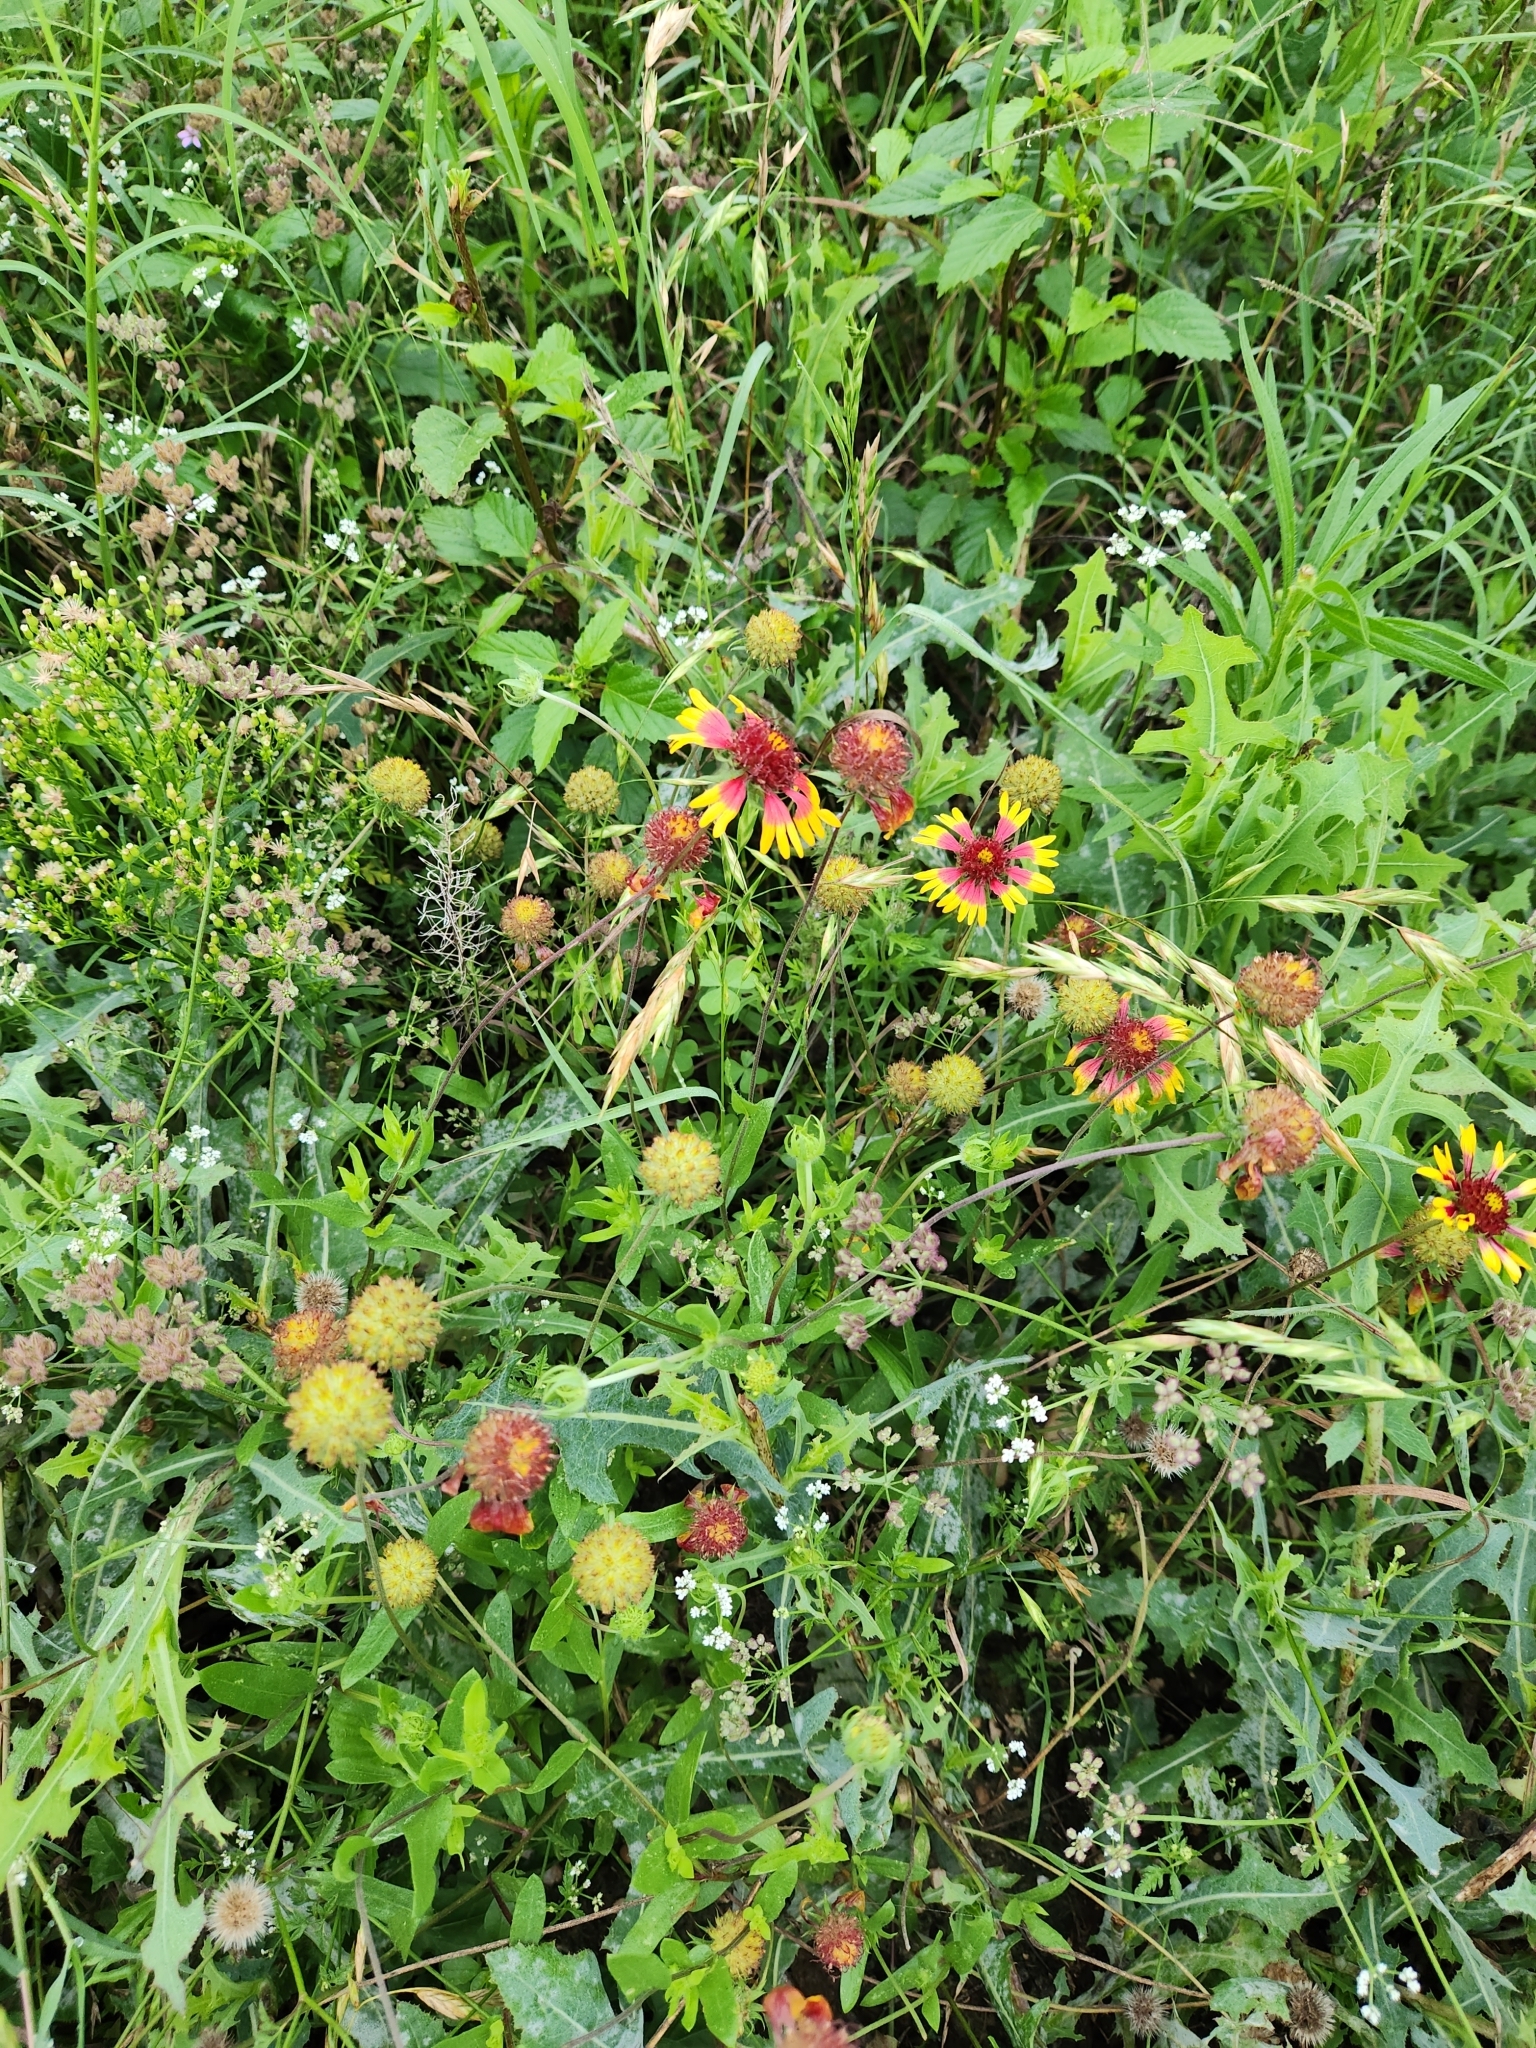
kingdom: Plantae
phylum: Tracheophyta
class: Magnoliopsida
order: Asterales
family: Asteraceae
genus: Gaillardia
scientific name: Gaillardia pulchella
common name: Firewheel
